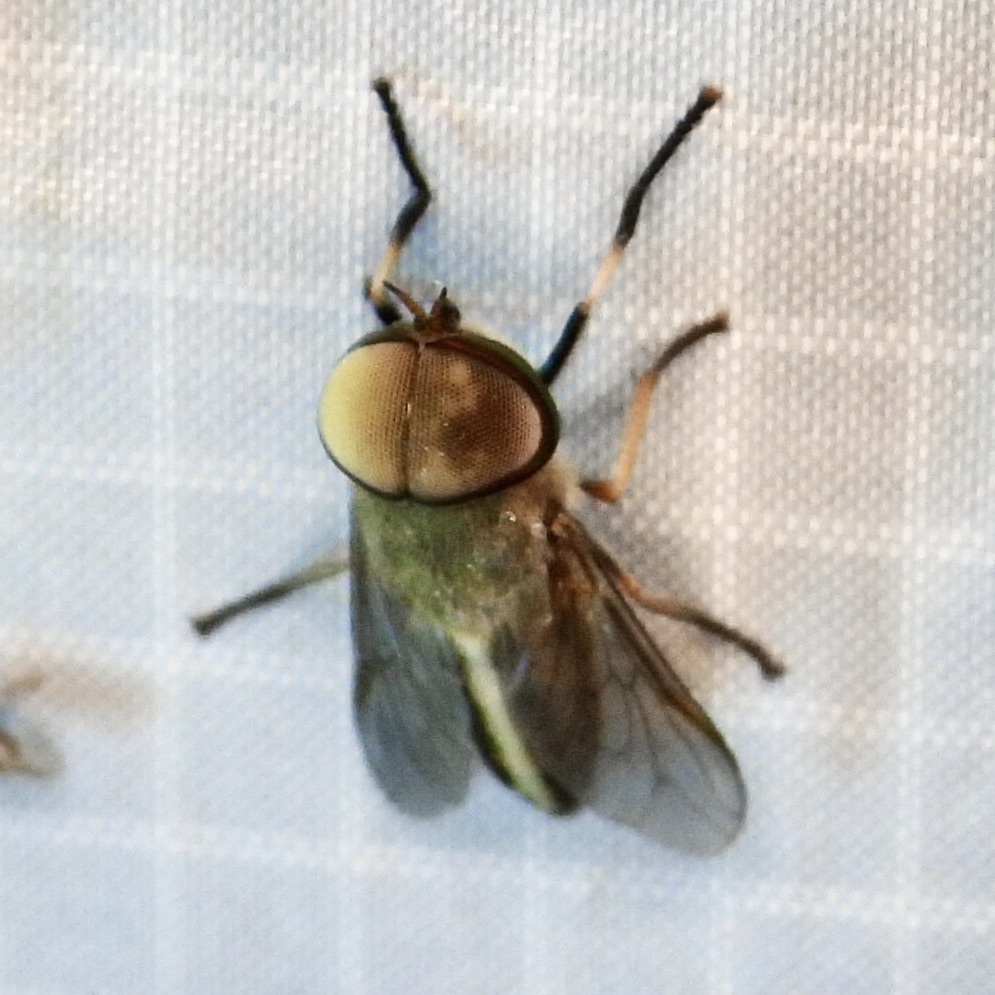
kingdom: Animalia
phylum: Arthropoda
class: Insecta
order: Diptera
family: Tabanidae
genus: Tabanus
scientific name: Tabanus lineola
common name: Striped horse fly
